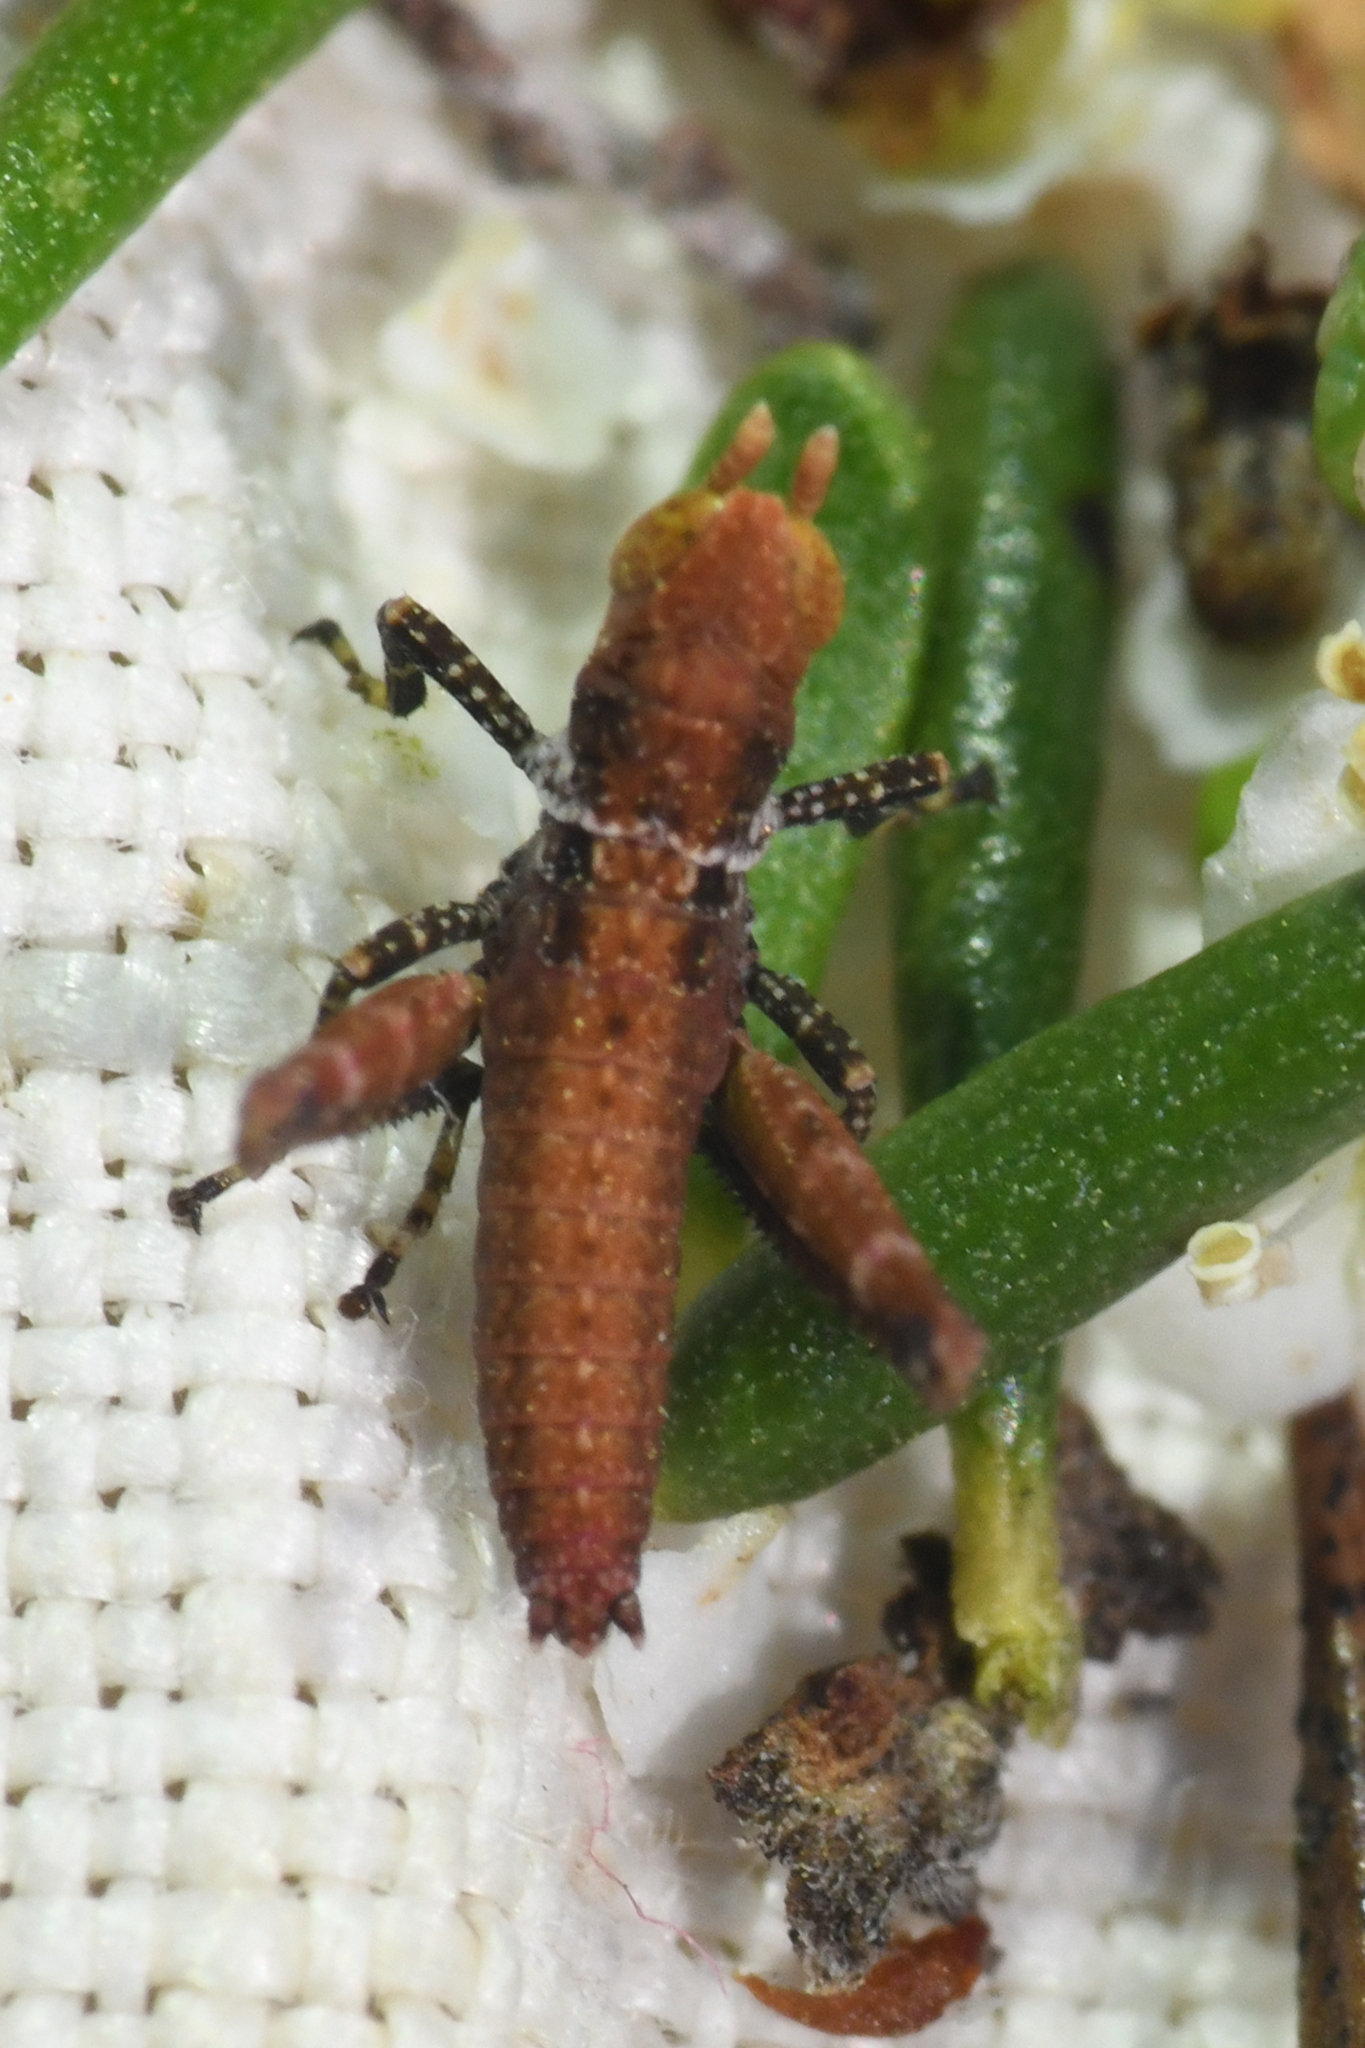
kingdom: Animalia
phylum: Arthropoda
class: Insecta
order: Orthoptera
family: Eumastacidae
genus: Morsea
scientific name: Morsea californica
